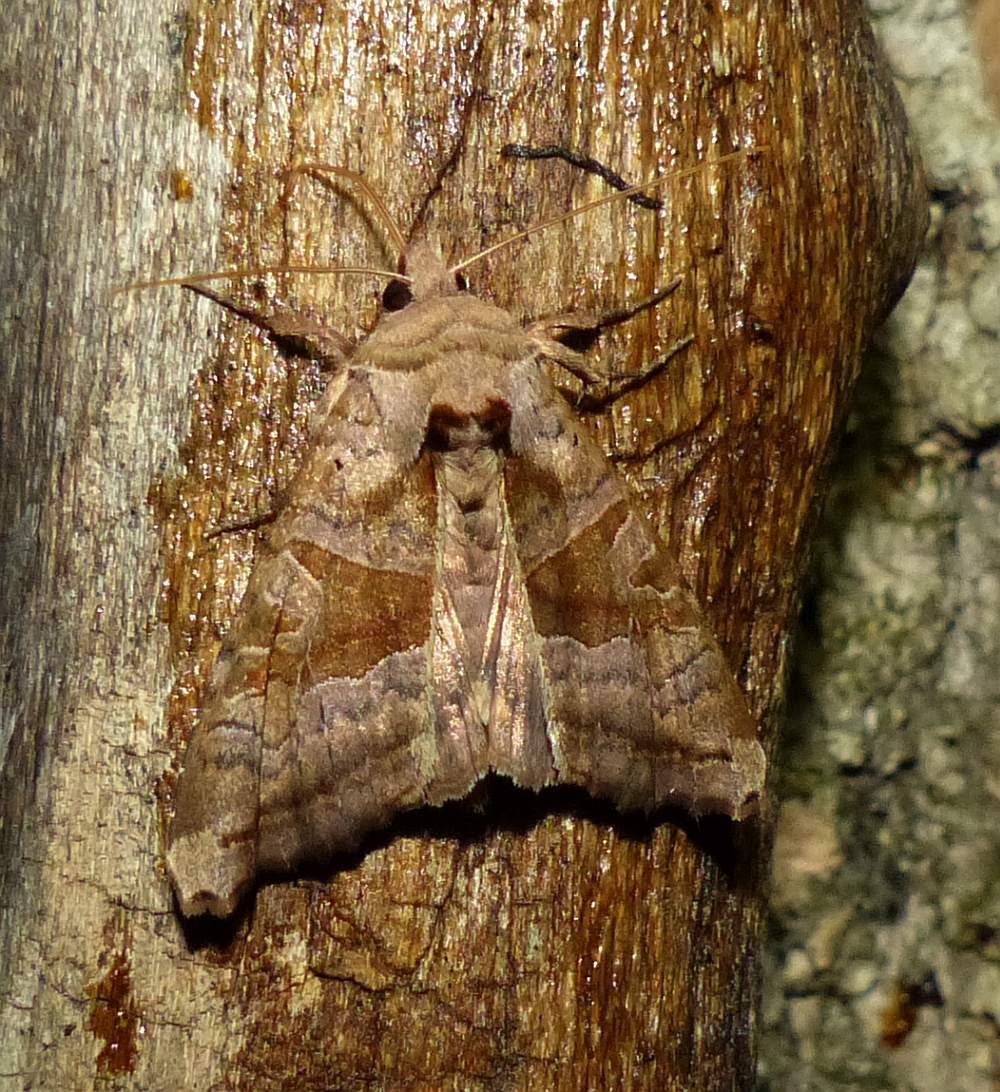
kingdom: Animalia
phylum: Arthropoda
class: Insecta
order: Lepidoptera
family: Noctuidae
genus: Phlogophora
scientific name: Phlogophora periculosa
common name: Brown angle shades
